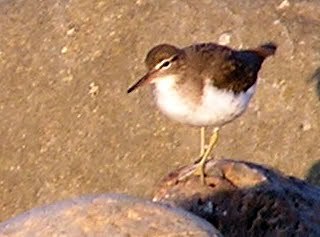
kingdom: Animalia
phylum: Chordata
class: Aves
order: Charadriiformes
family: Scolopacidae
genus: Actitis
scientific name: Actitis macularius
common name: Spotted sandpiper
